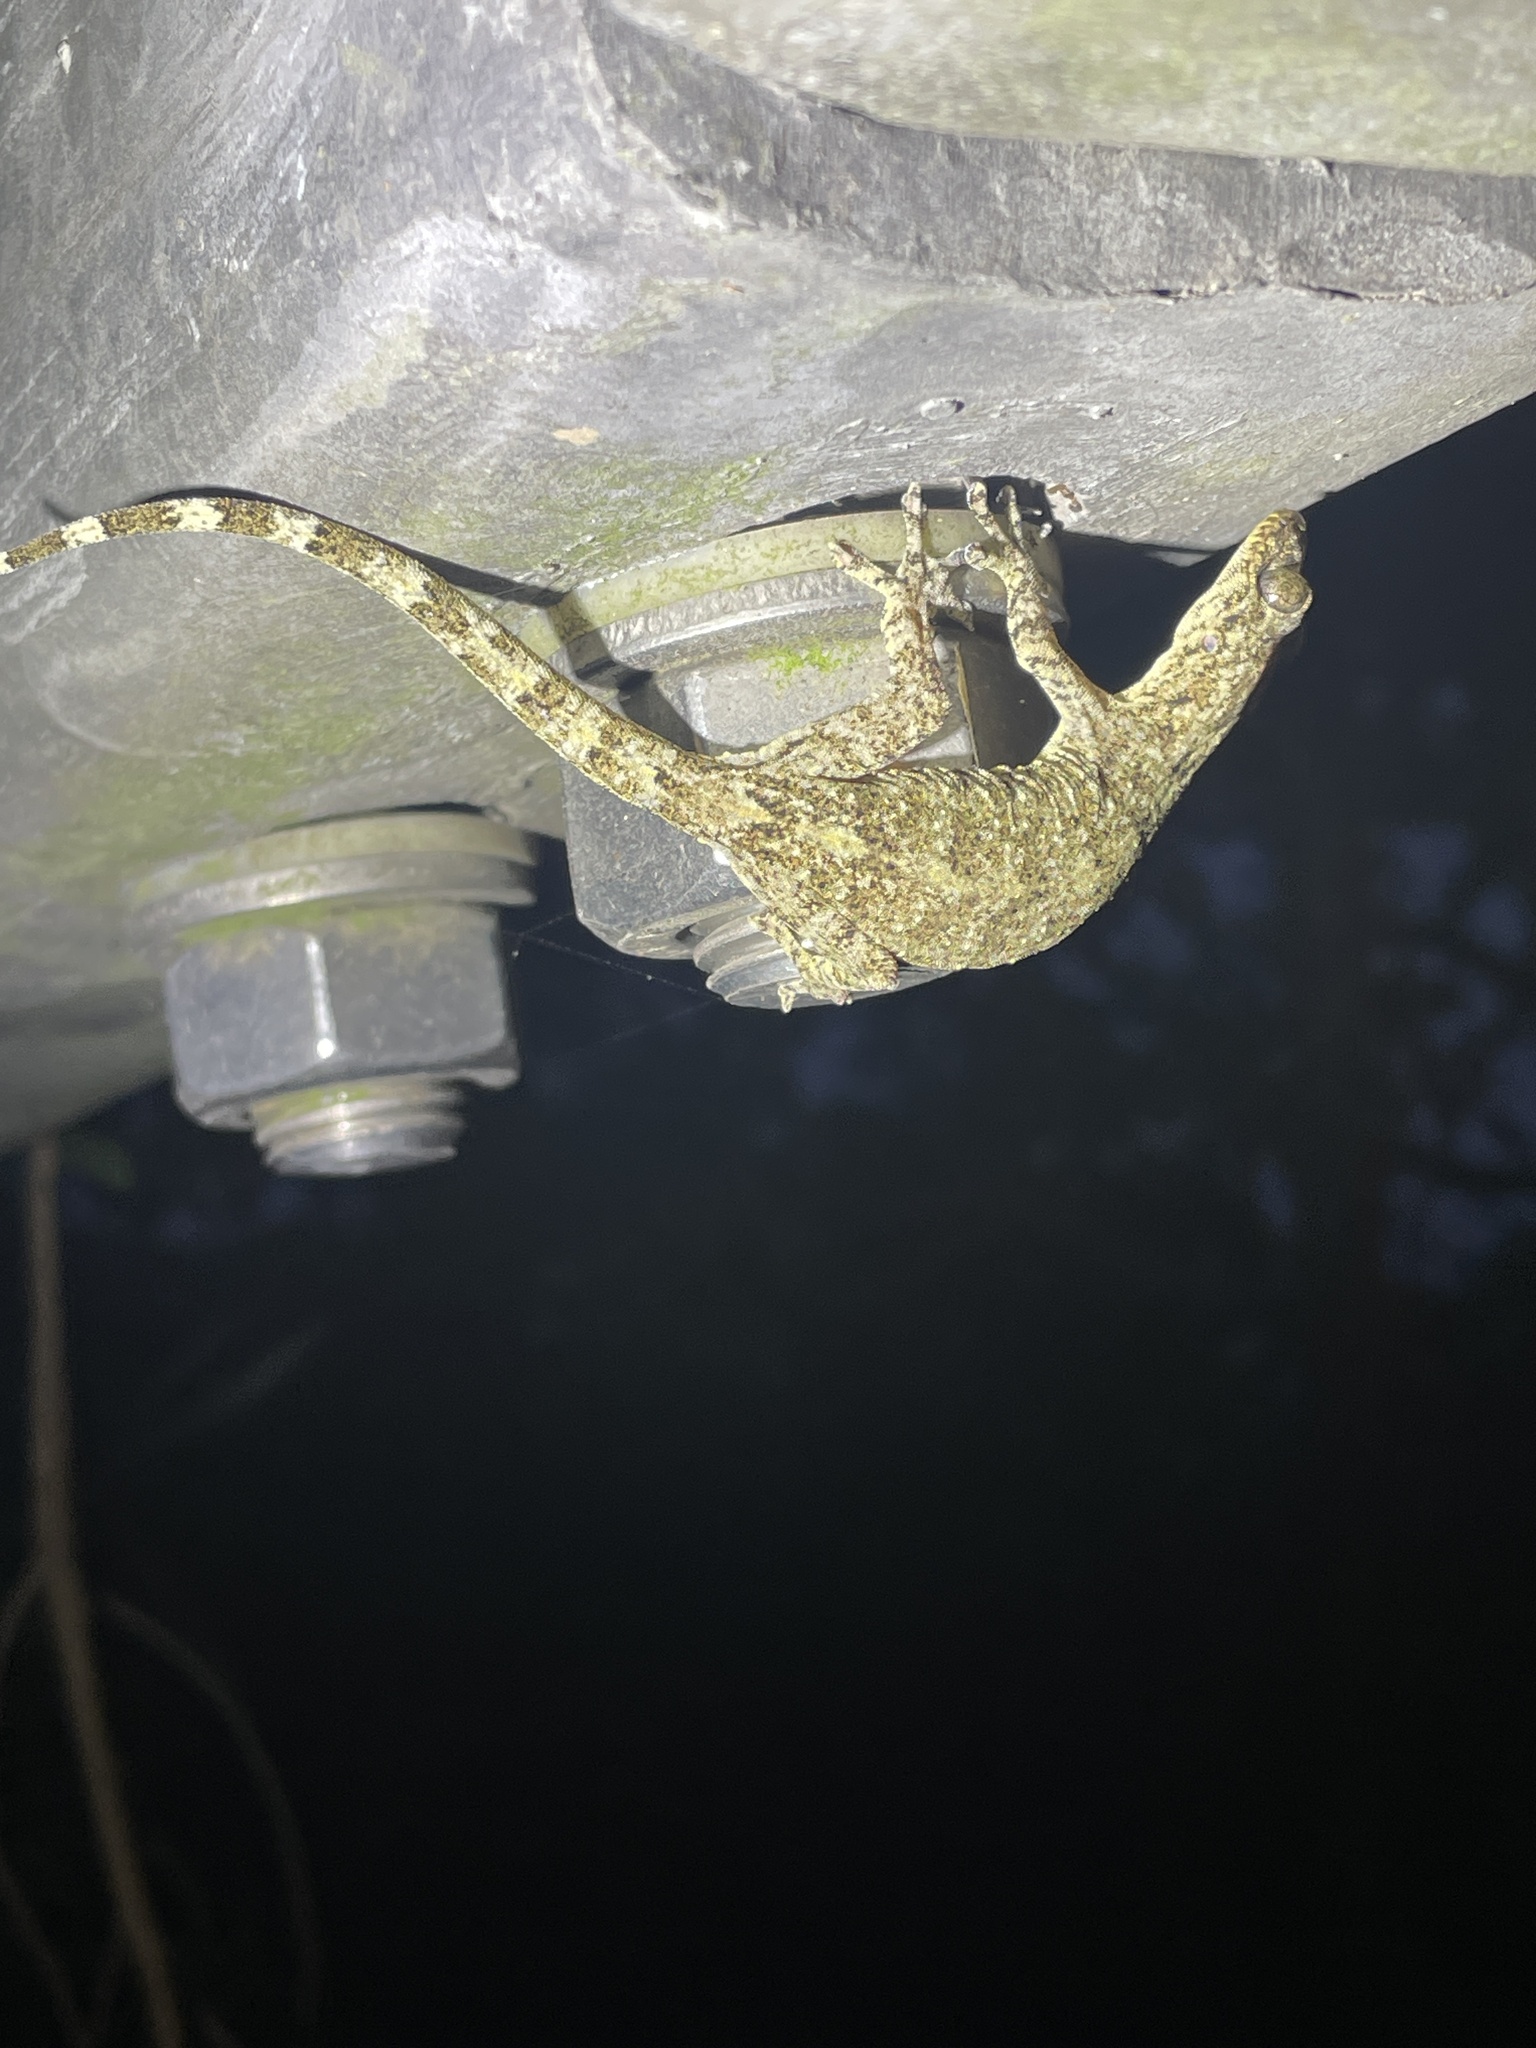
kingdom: Animalia
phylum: Chordata
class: Squamata
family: Gekkonidae
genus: Gekko
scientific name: Gekko chinensis
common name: Gray's chinese gecko
